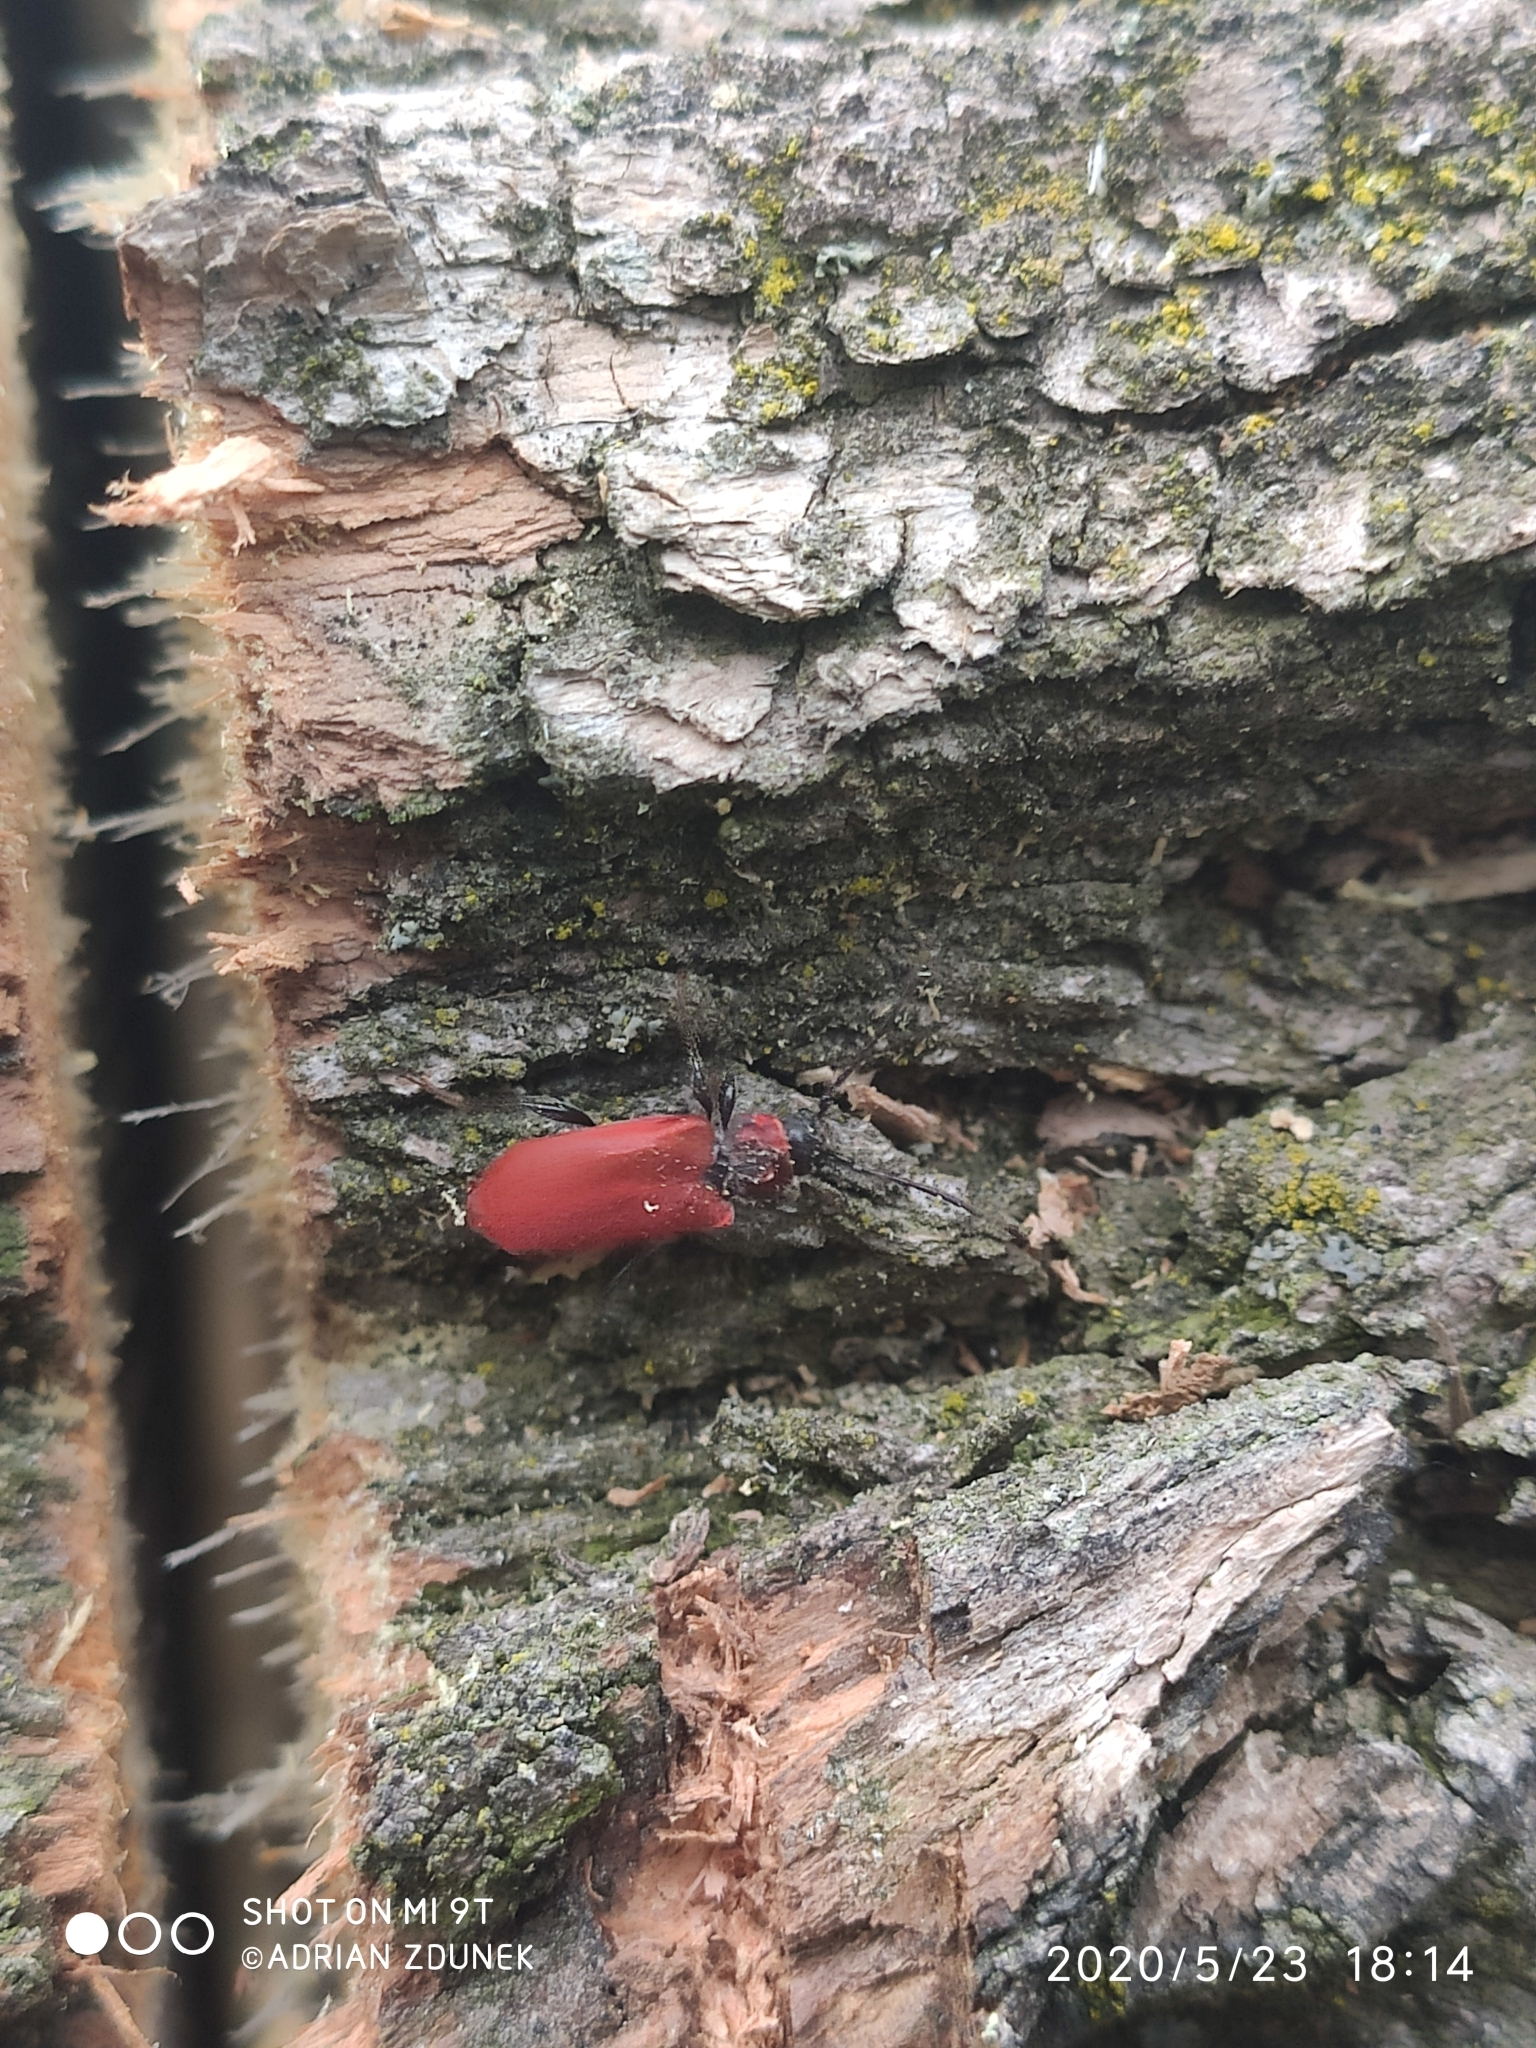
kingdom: Animalia
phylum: Arthropoda
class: Insecta
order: Coleoptera
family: Cerambycidae
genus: Pyrrhidium
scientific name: Pyrrhidium sanguineum
